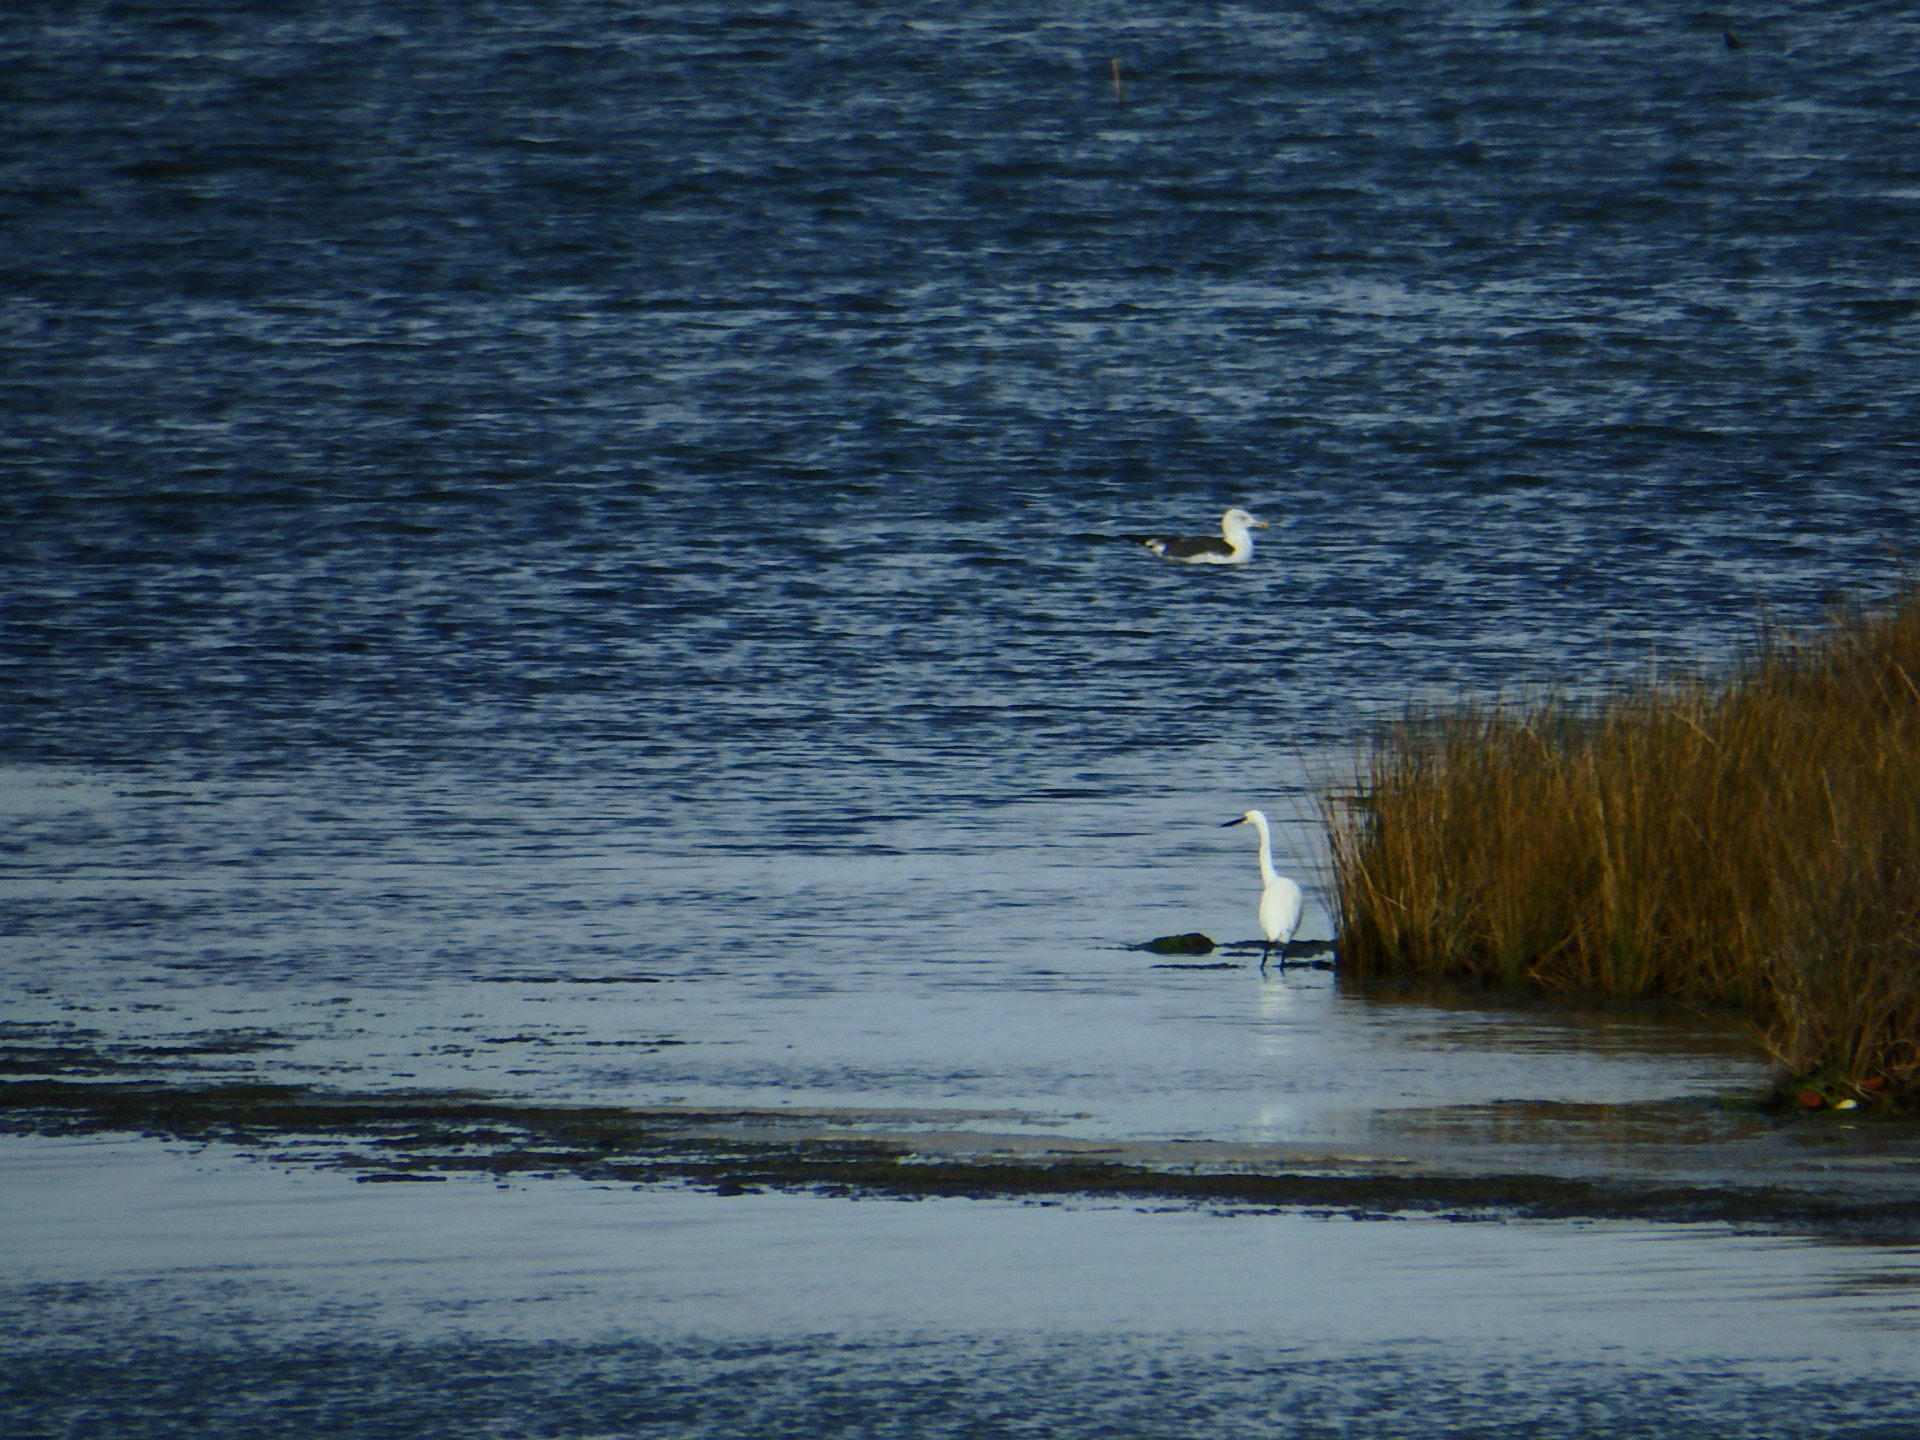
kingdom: Animalia
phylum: Chordata
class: Aves
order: Pelecaniformes
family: Ardeidae
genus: Egretta
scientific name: Egretta garzetta
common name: Little egret
